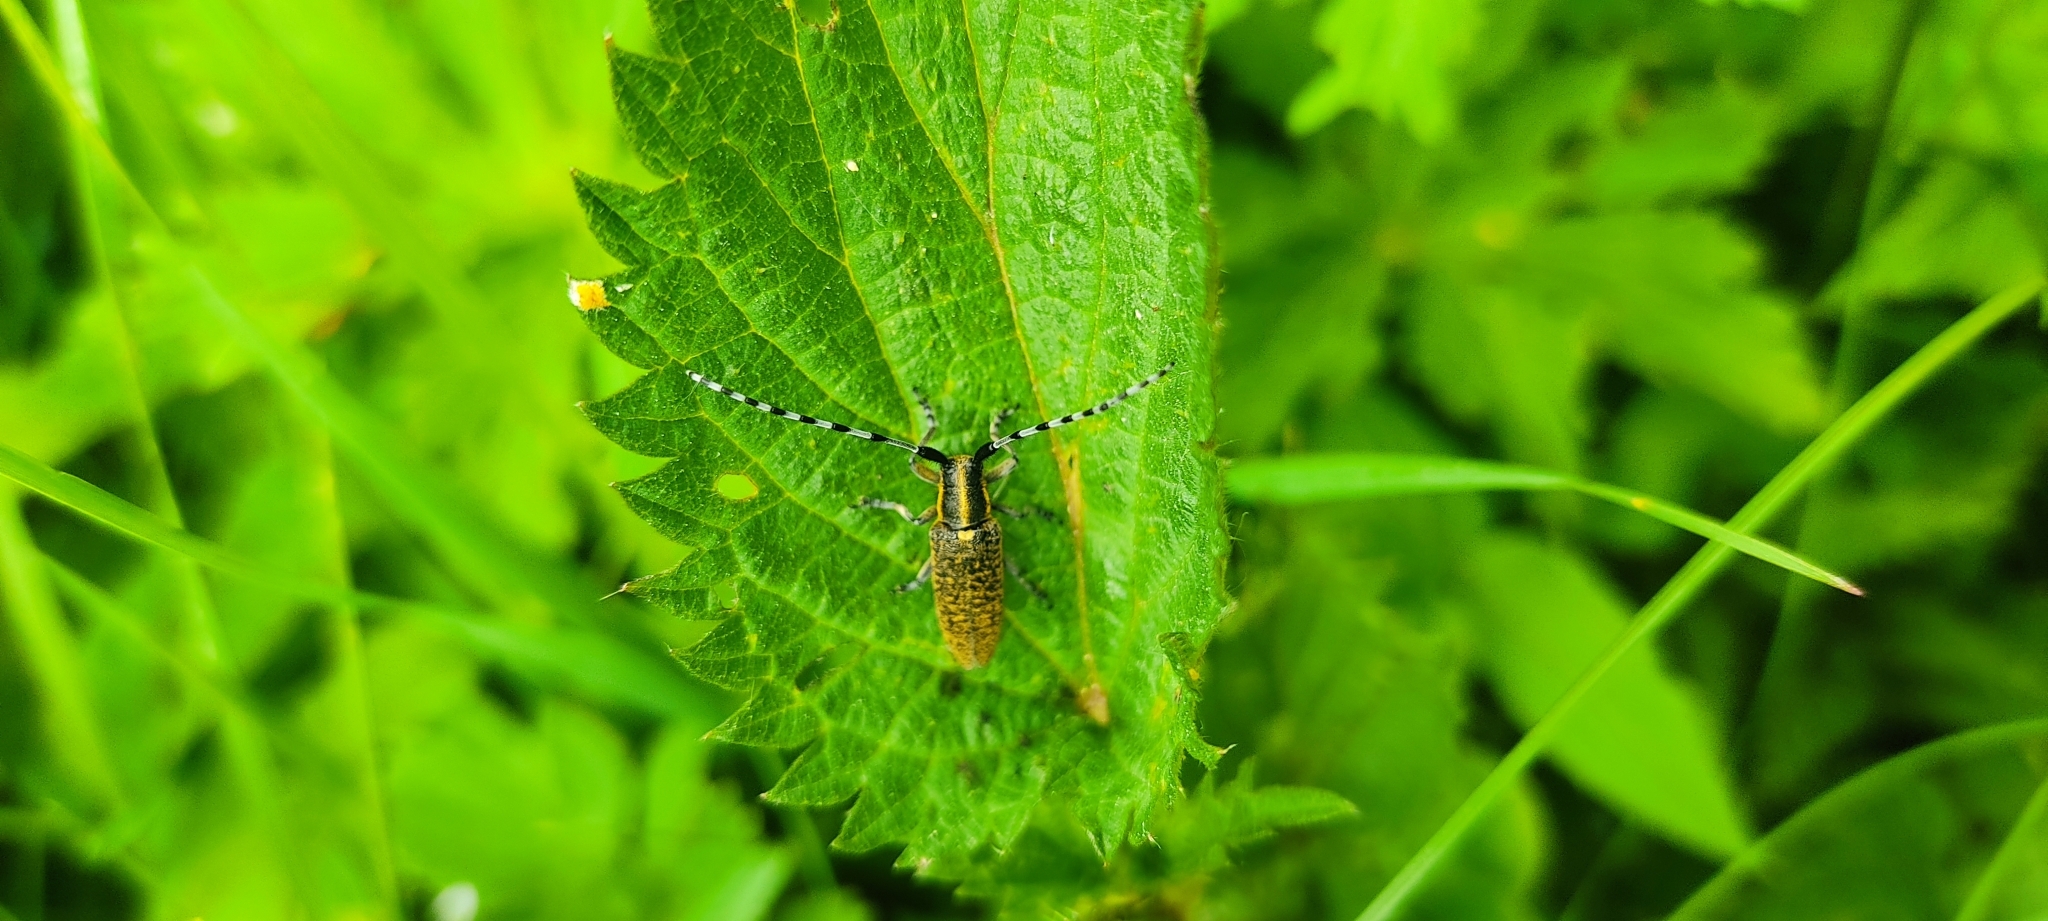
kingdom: Animalia
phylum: Arthropoda
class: Insecta
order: Coleoptera
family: Cerambycidae
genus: Agapanthia
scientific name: Agapanthia villosoviridescens
